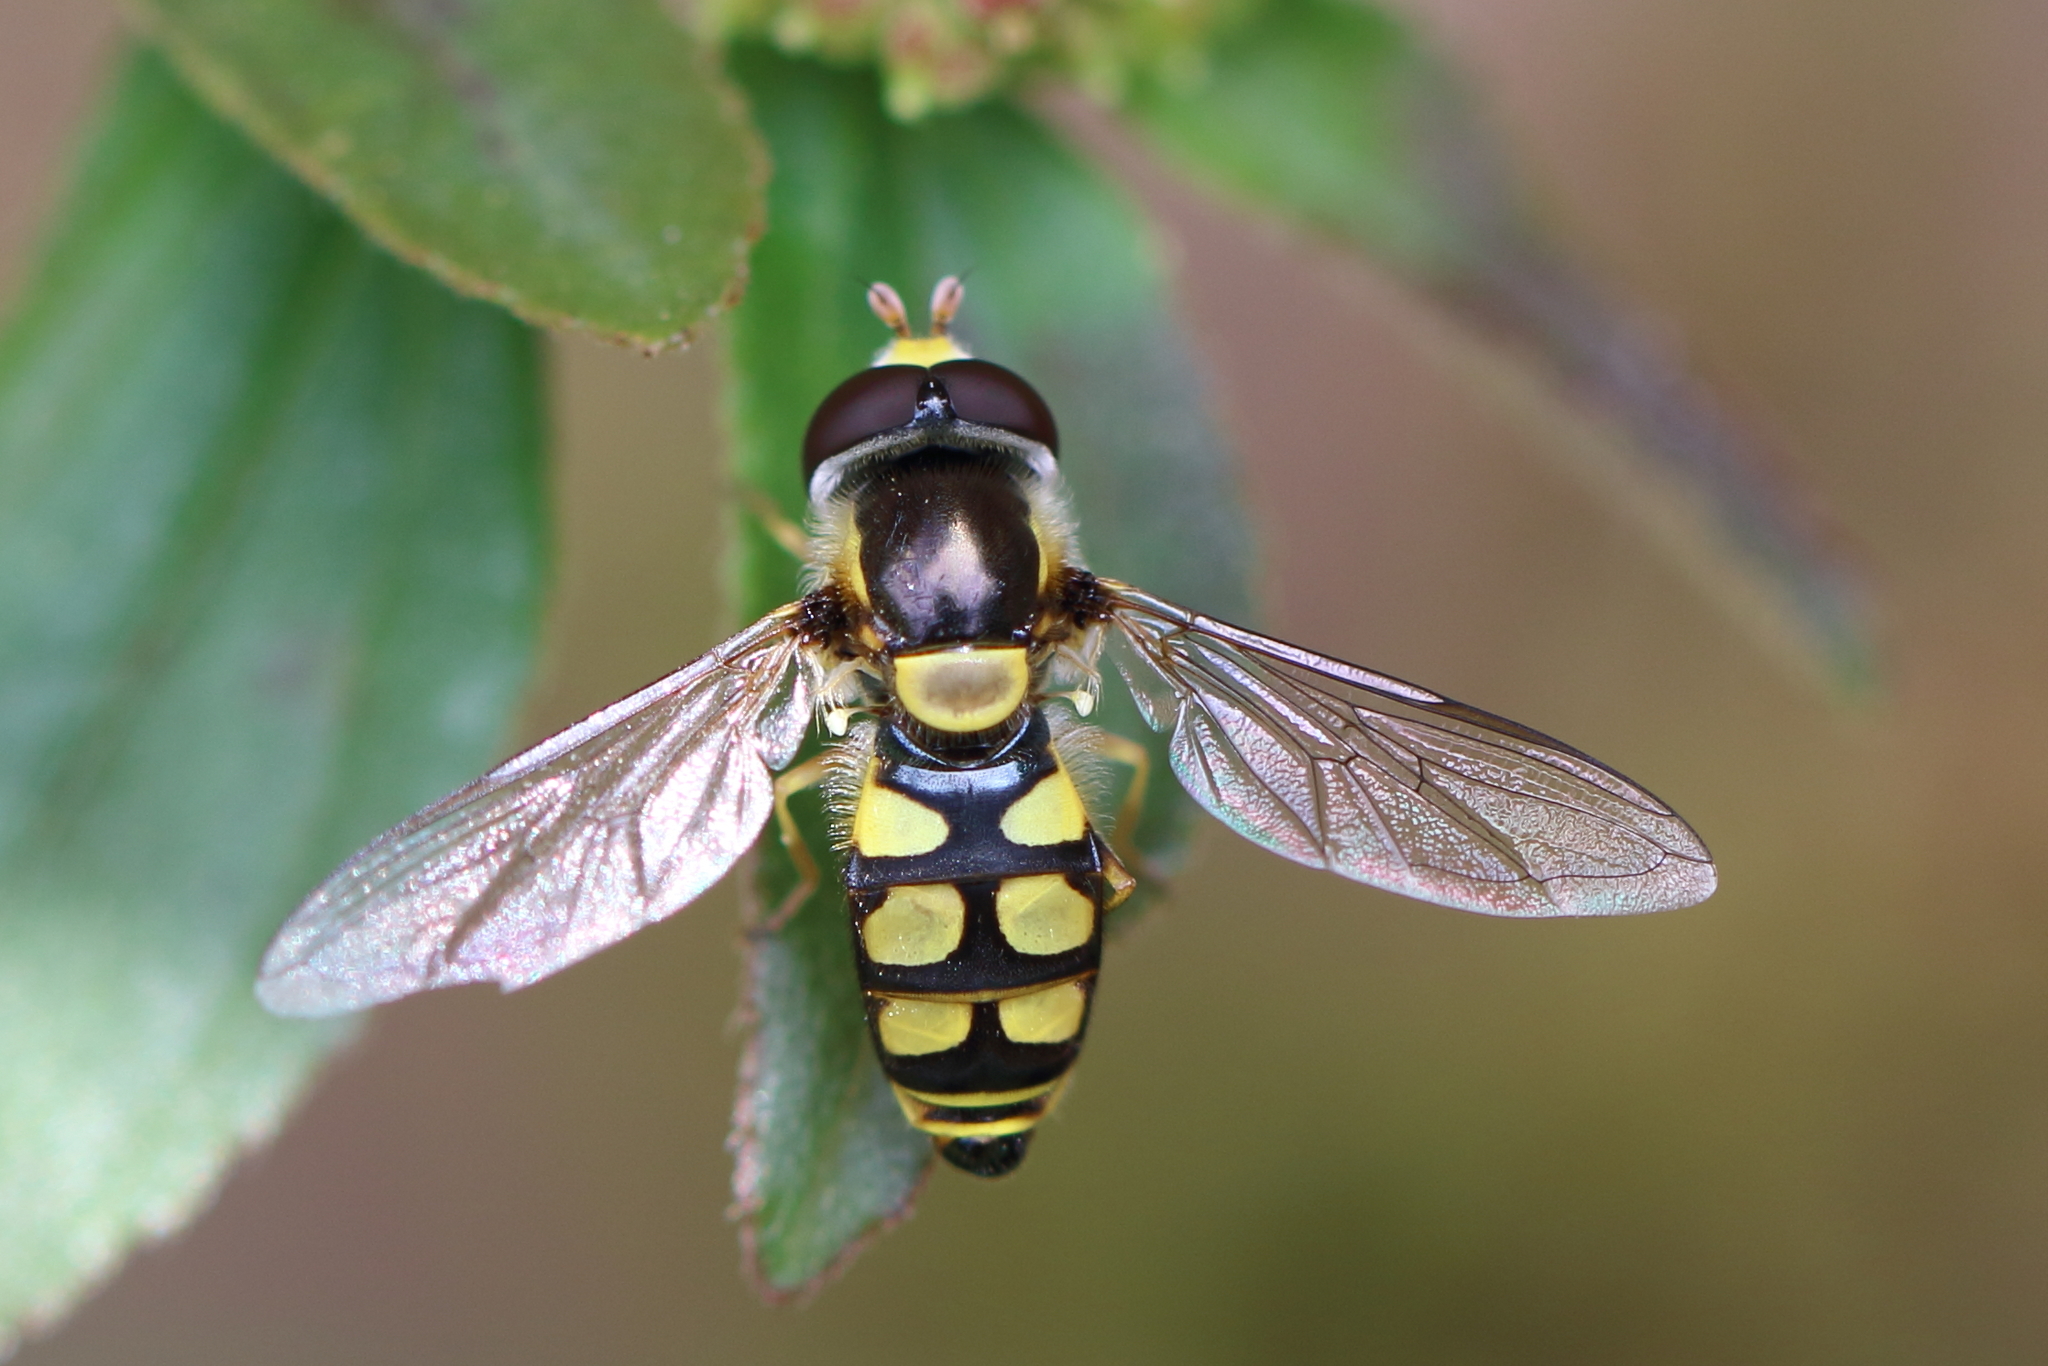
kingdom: Animalia
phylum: Arthropoda
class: Insecta
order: Diptera
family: Syrphidae
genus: Simosyrphus
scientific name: Simosyrphus grandicornis
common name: Hoverfly
